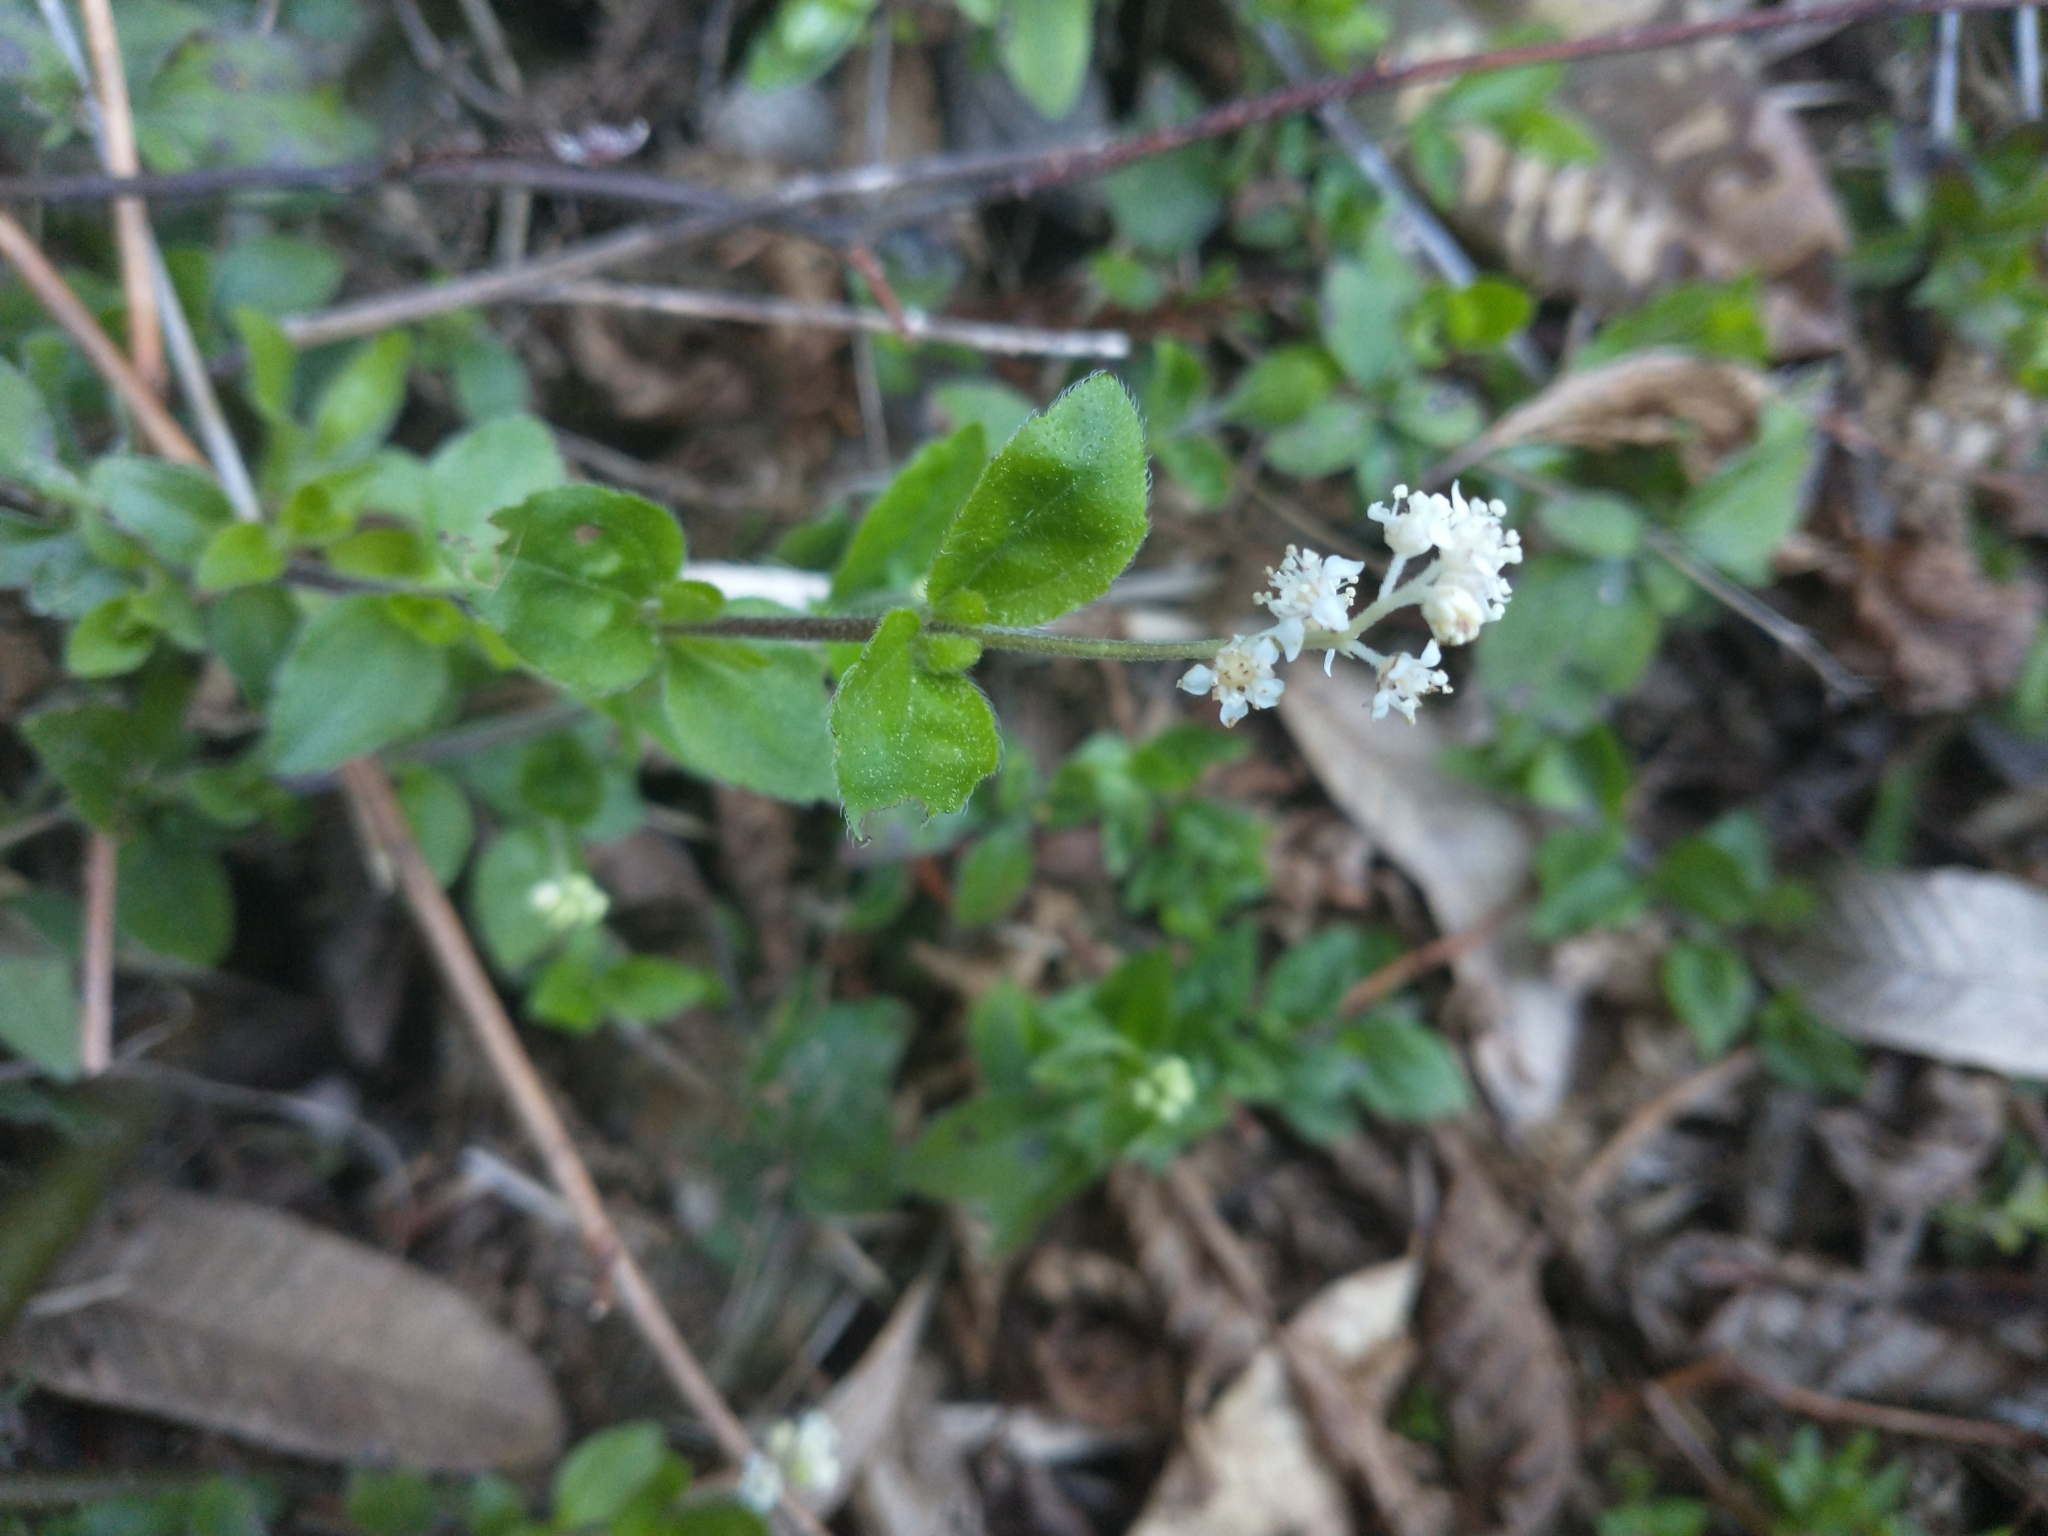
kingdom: Plantae
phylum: Tracheophyta
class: Magnoliopsida
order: Cornales
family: Hydrangeaceae
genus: Whipplea
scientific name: Whipplea modesta
